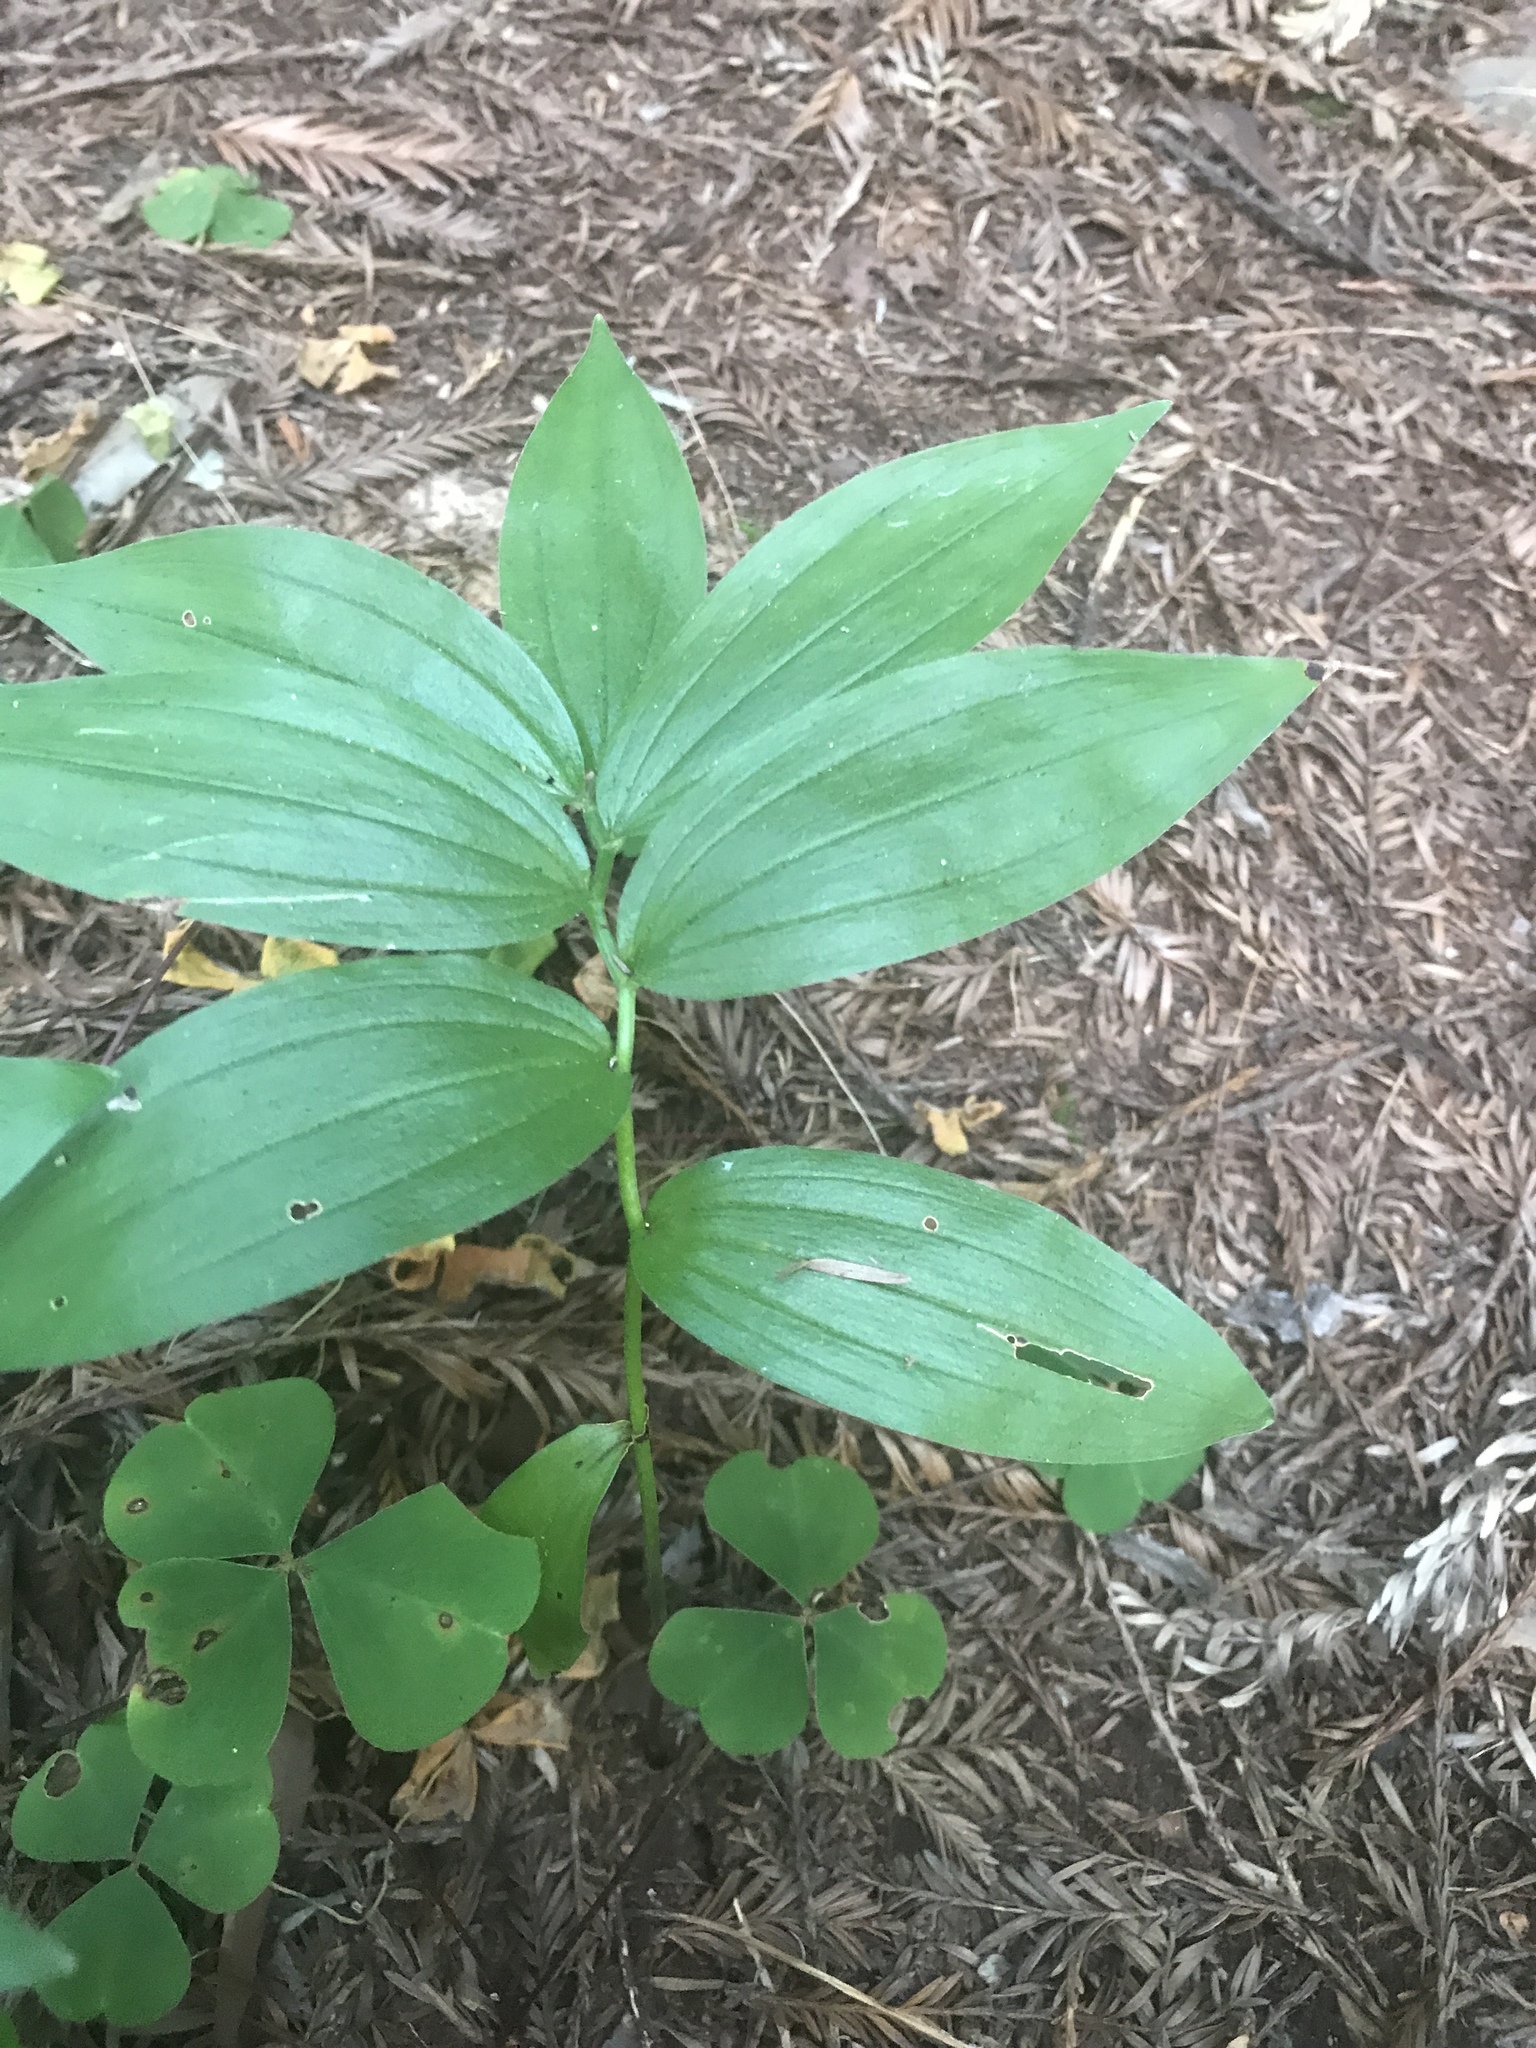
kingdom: Plantae
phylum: Tracheophyta
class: Liliopsida
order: Asparagales
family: Asparagaceae
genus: Maianthemum
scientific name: Maianthemum stellatum
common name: Little false solomon's seal
